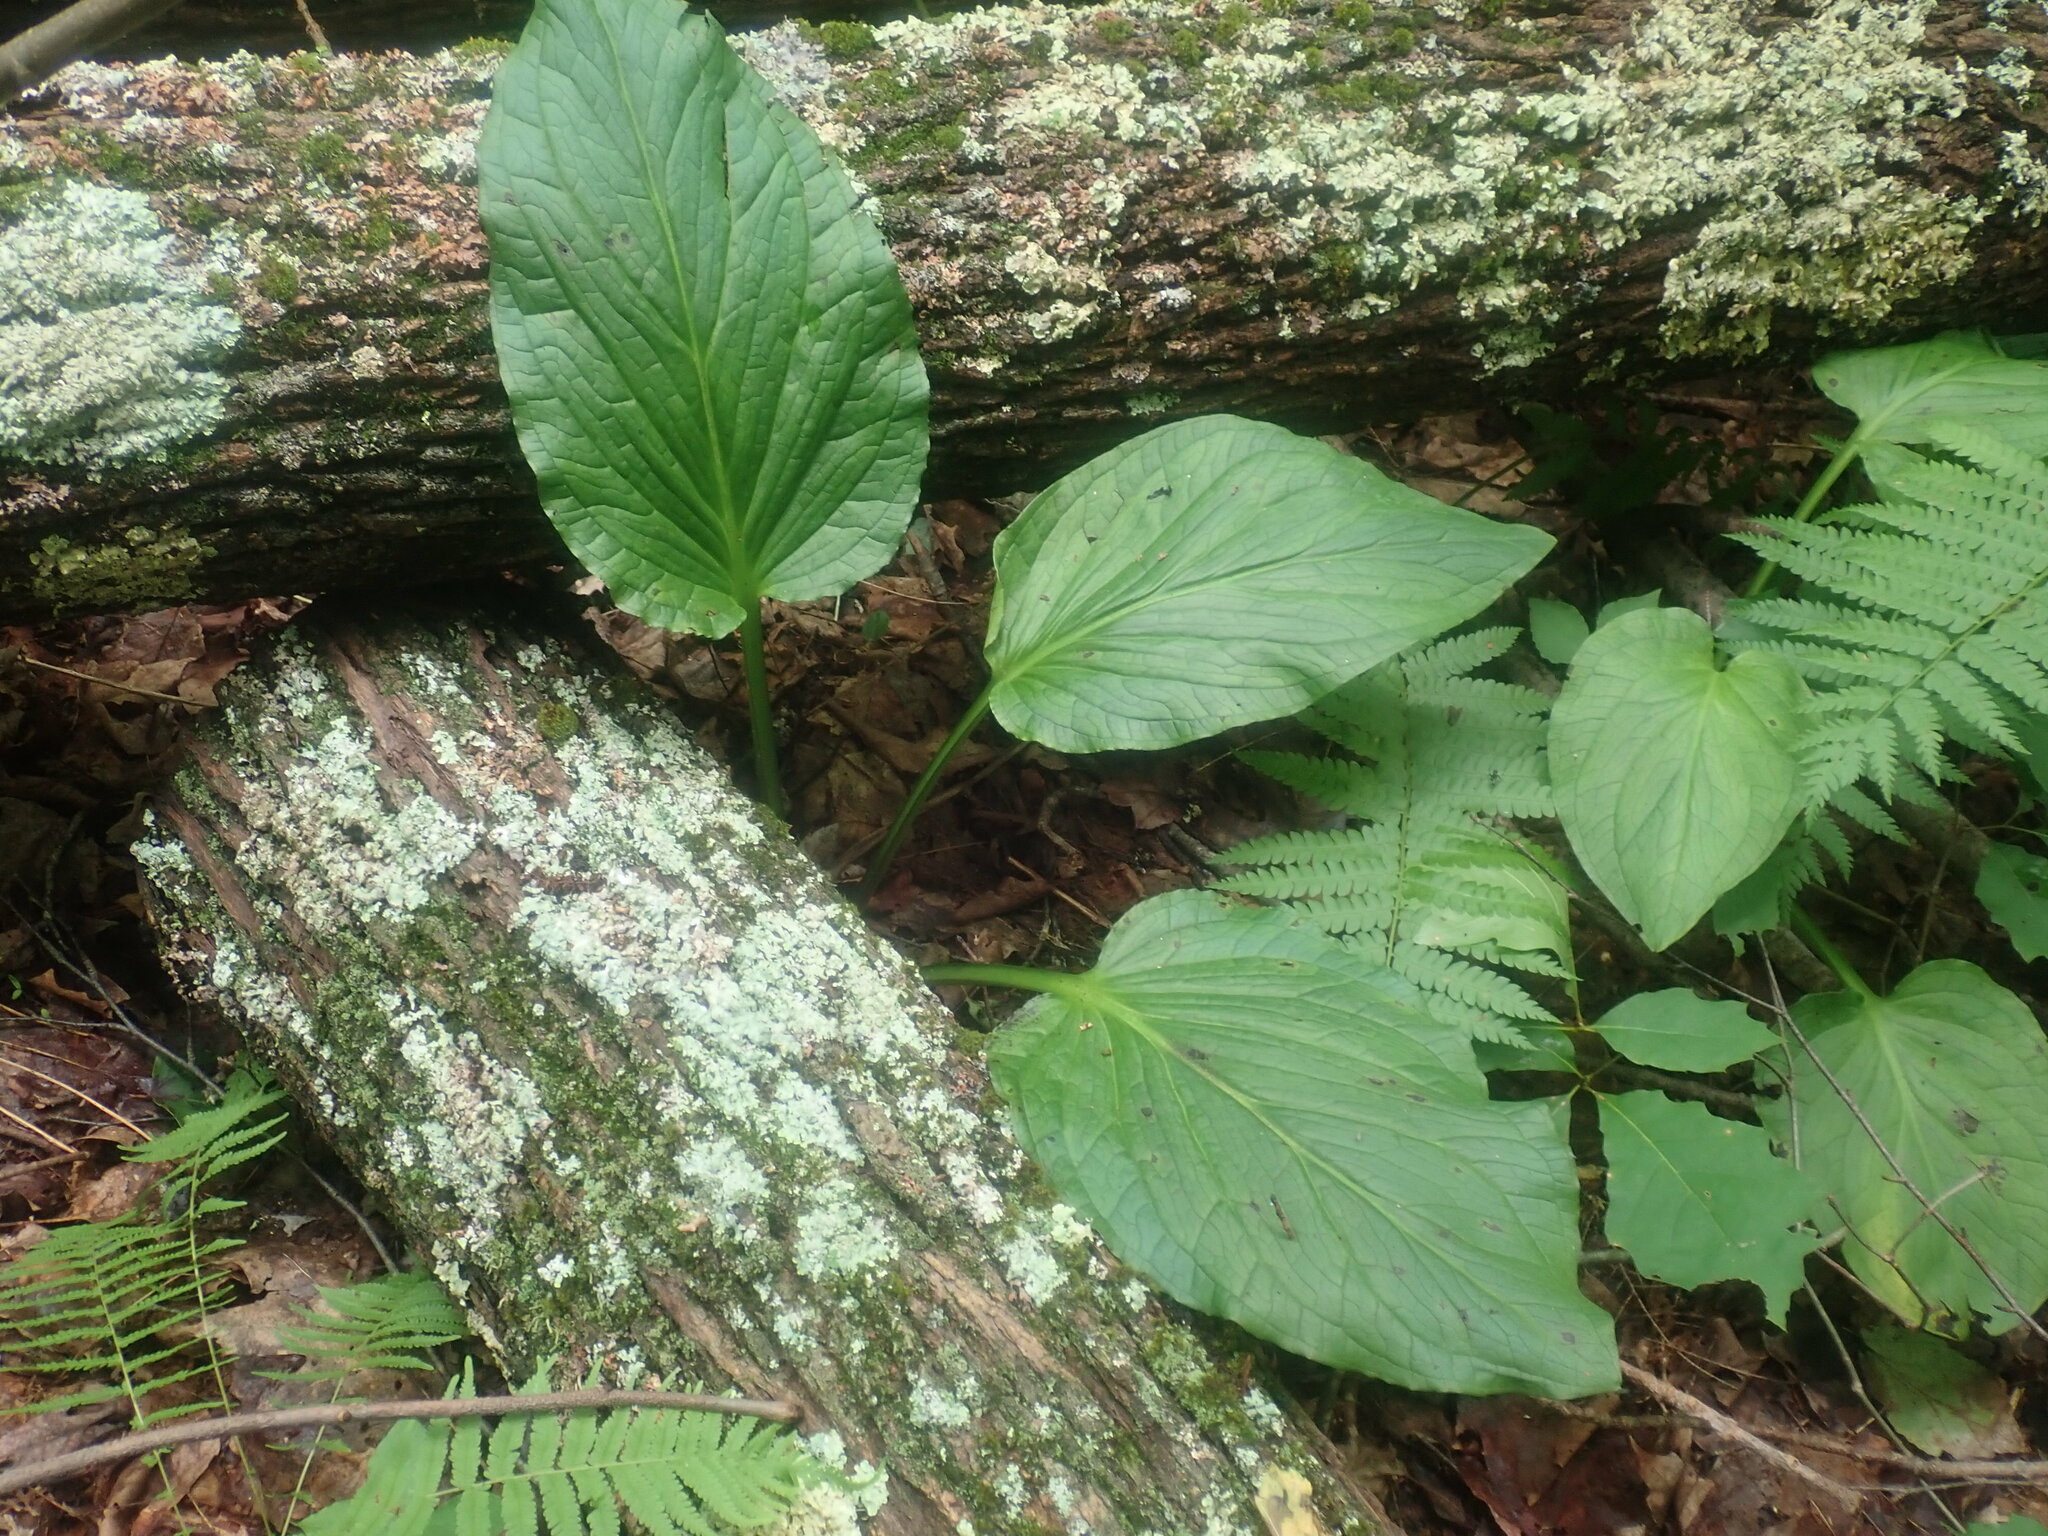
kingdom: Plantae
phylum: Tracheophyta
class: Liliopsida
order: Alismatales
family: Araceae
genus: Symplocarpus
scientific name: Symplocarpus foetidus
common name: Eastern skunk cabbage
